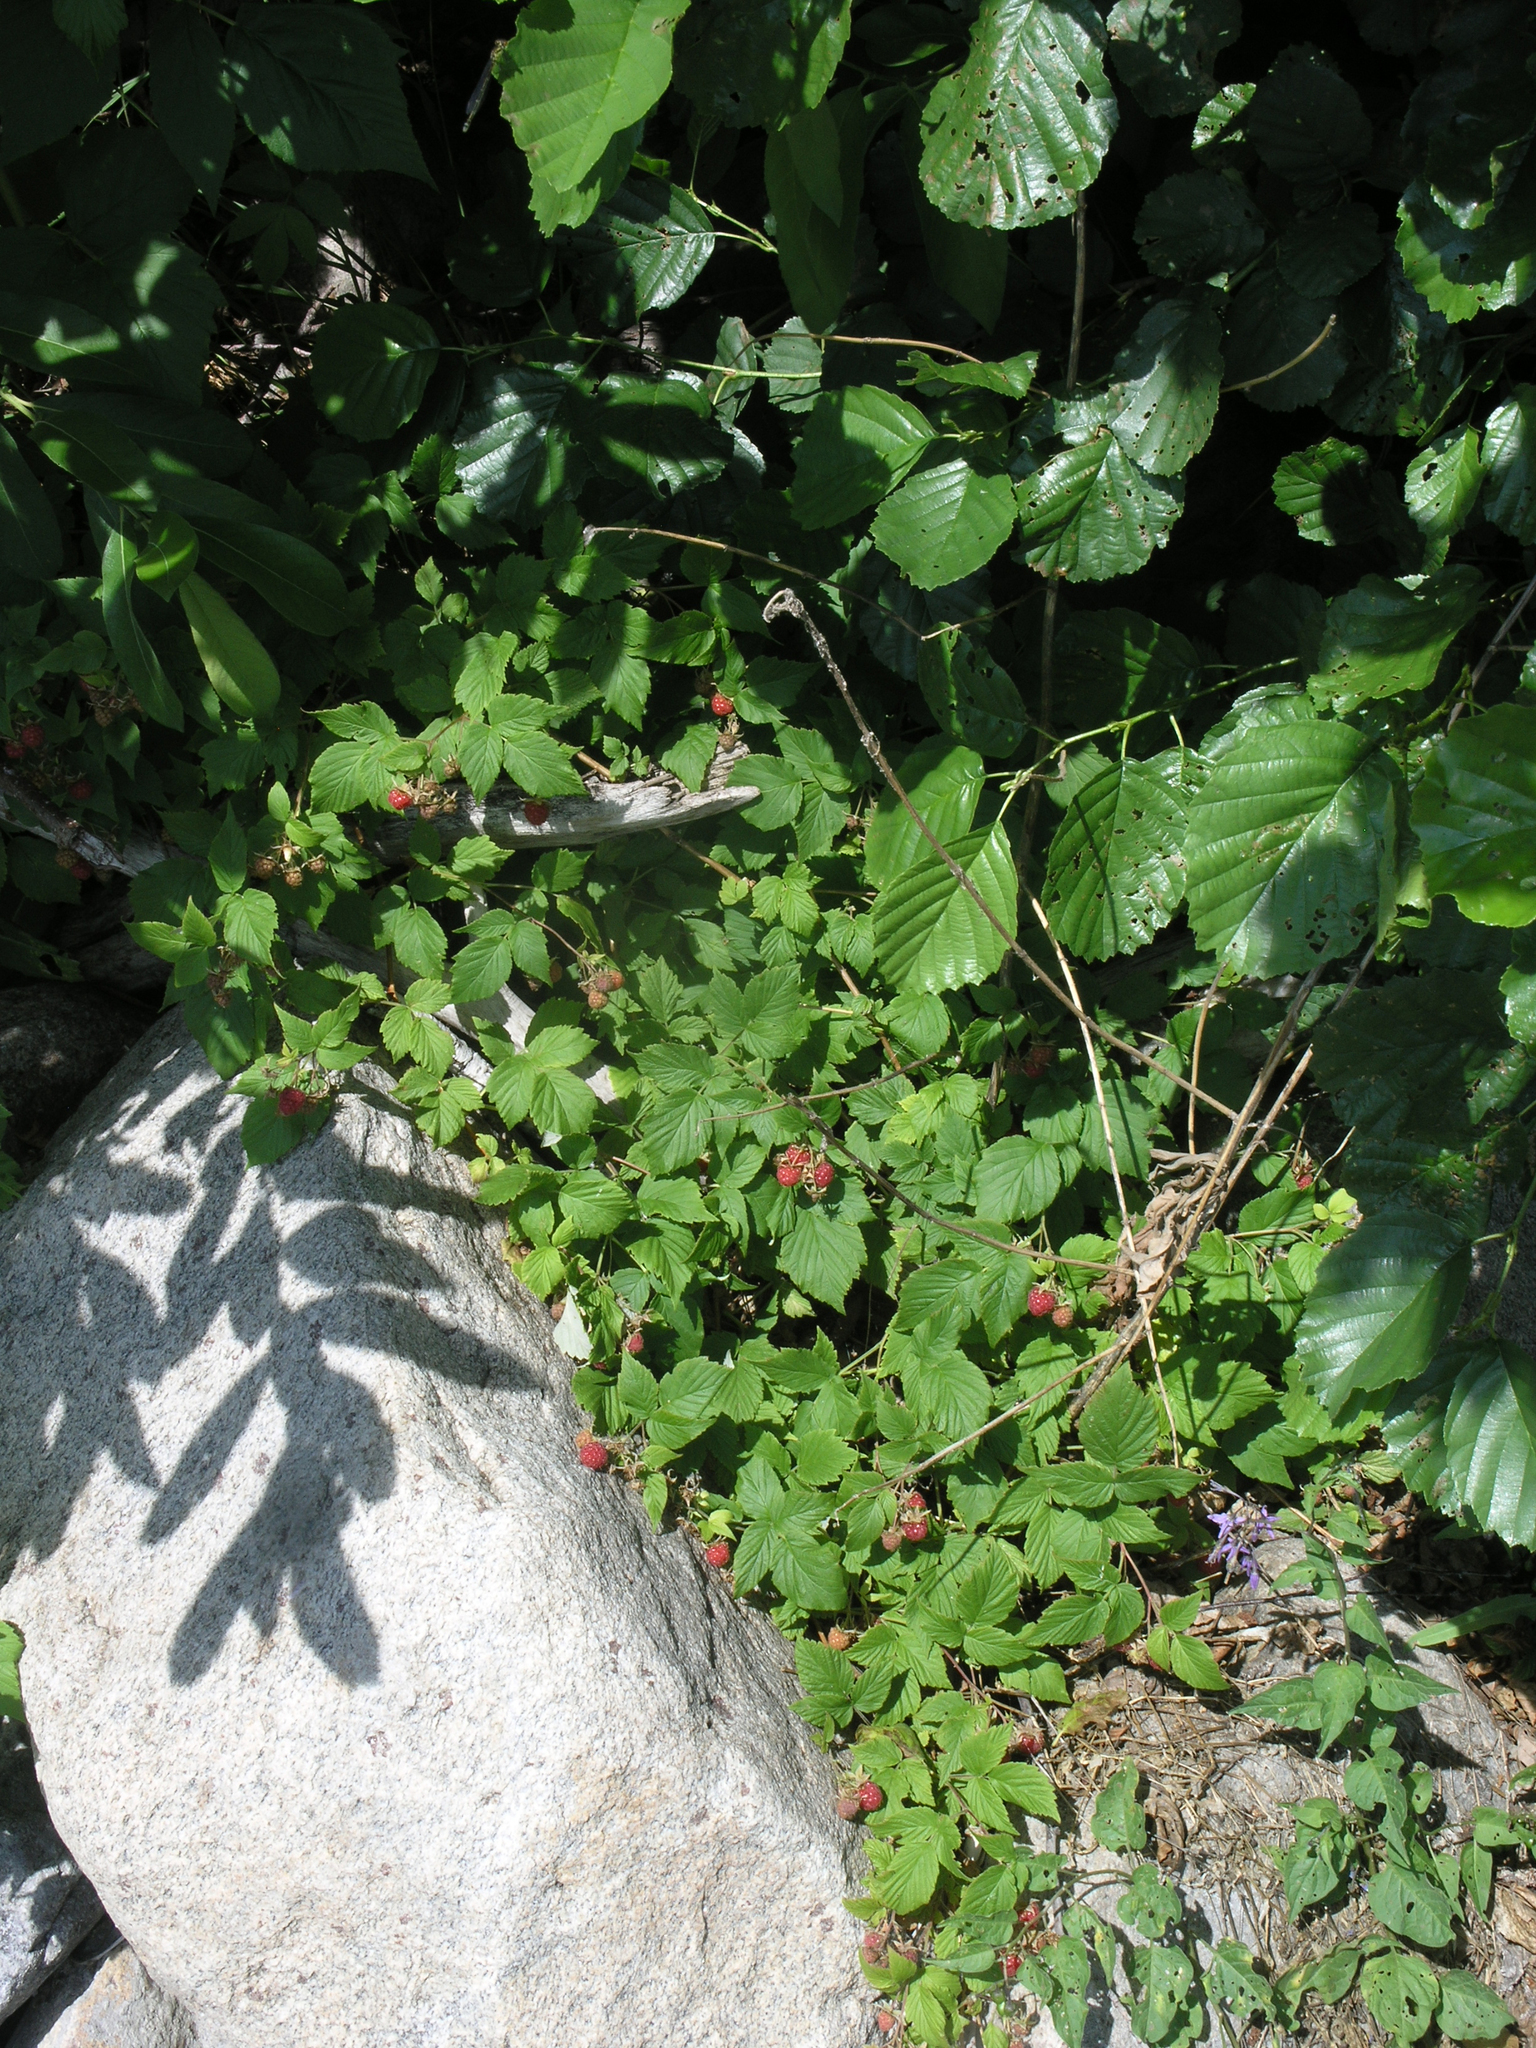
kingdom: Plantae
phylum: Tracheophyta
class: Magnoliopsida
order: Rosales
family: Rosaceae
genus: Rubus
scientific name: Rubus idaeus
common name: Raspberry
